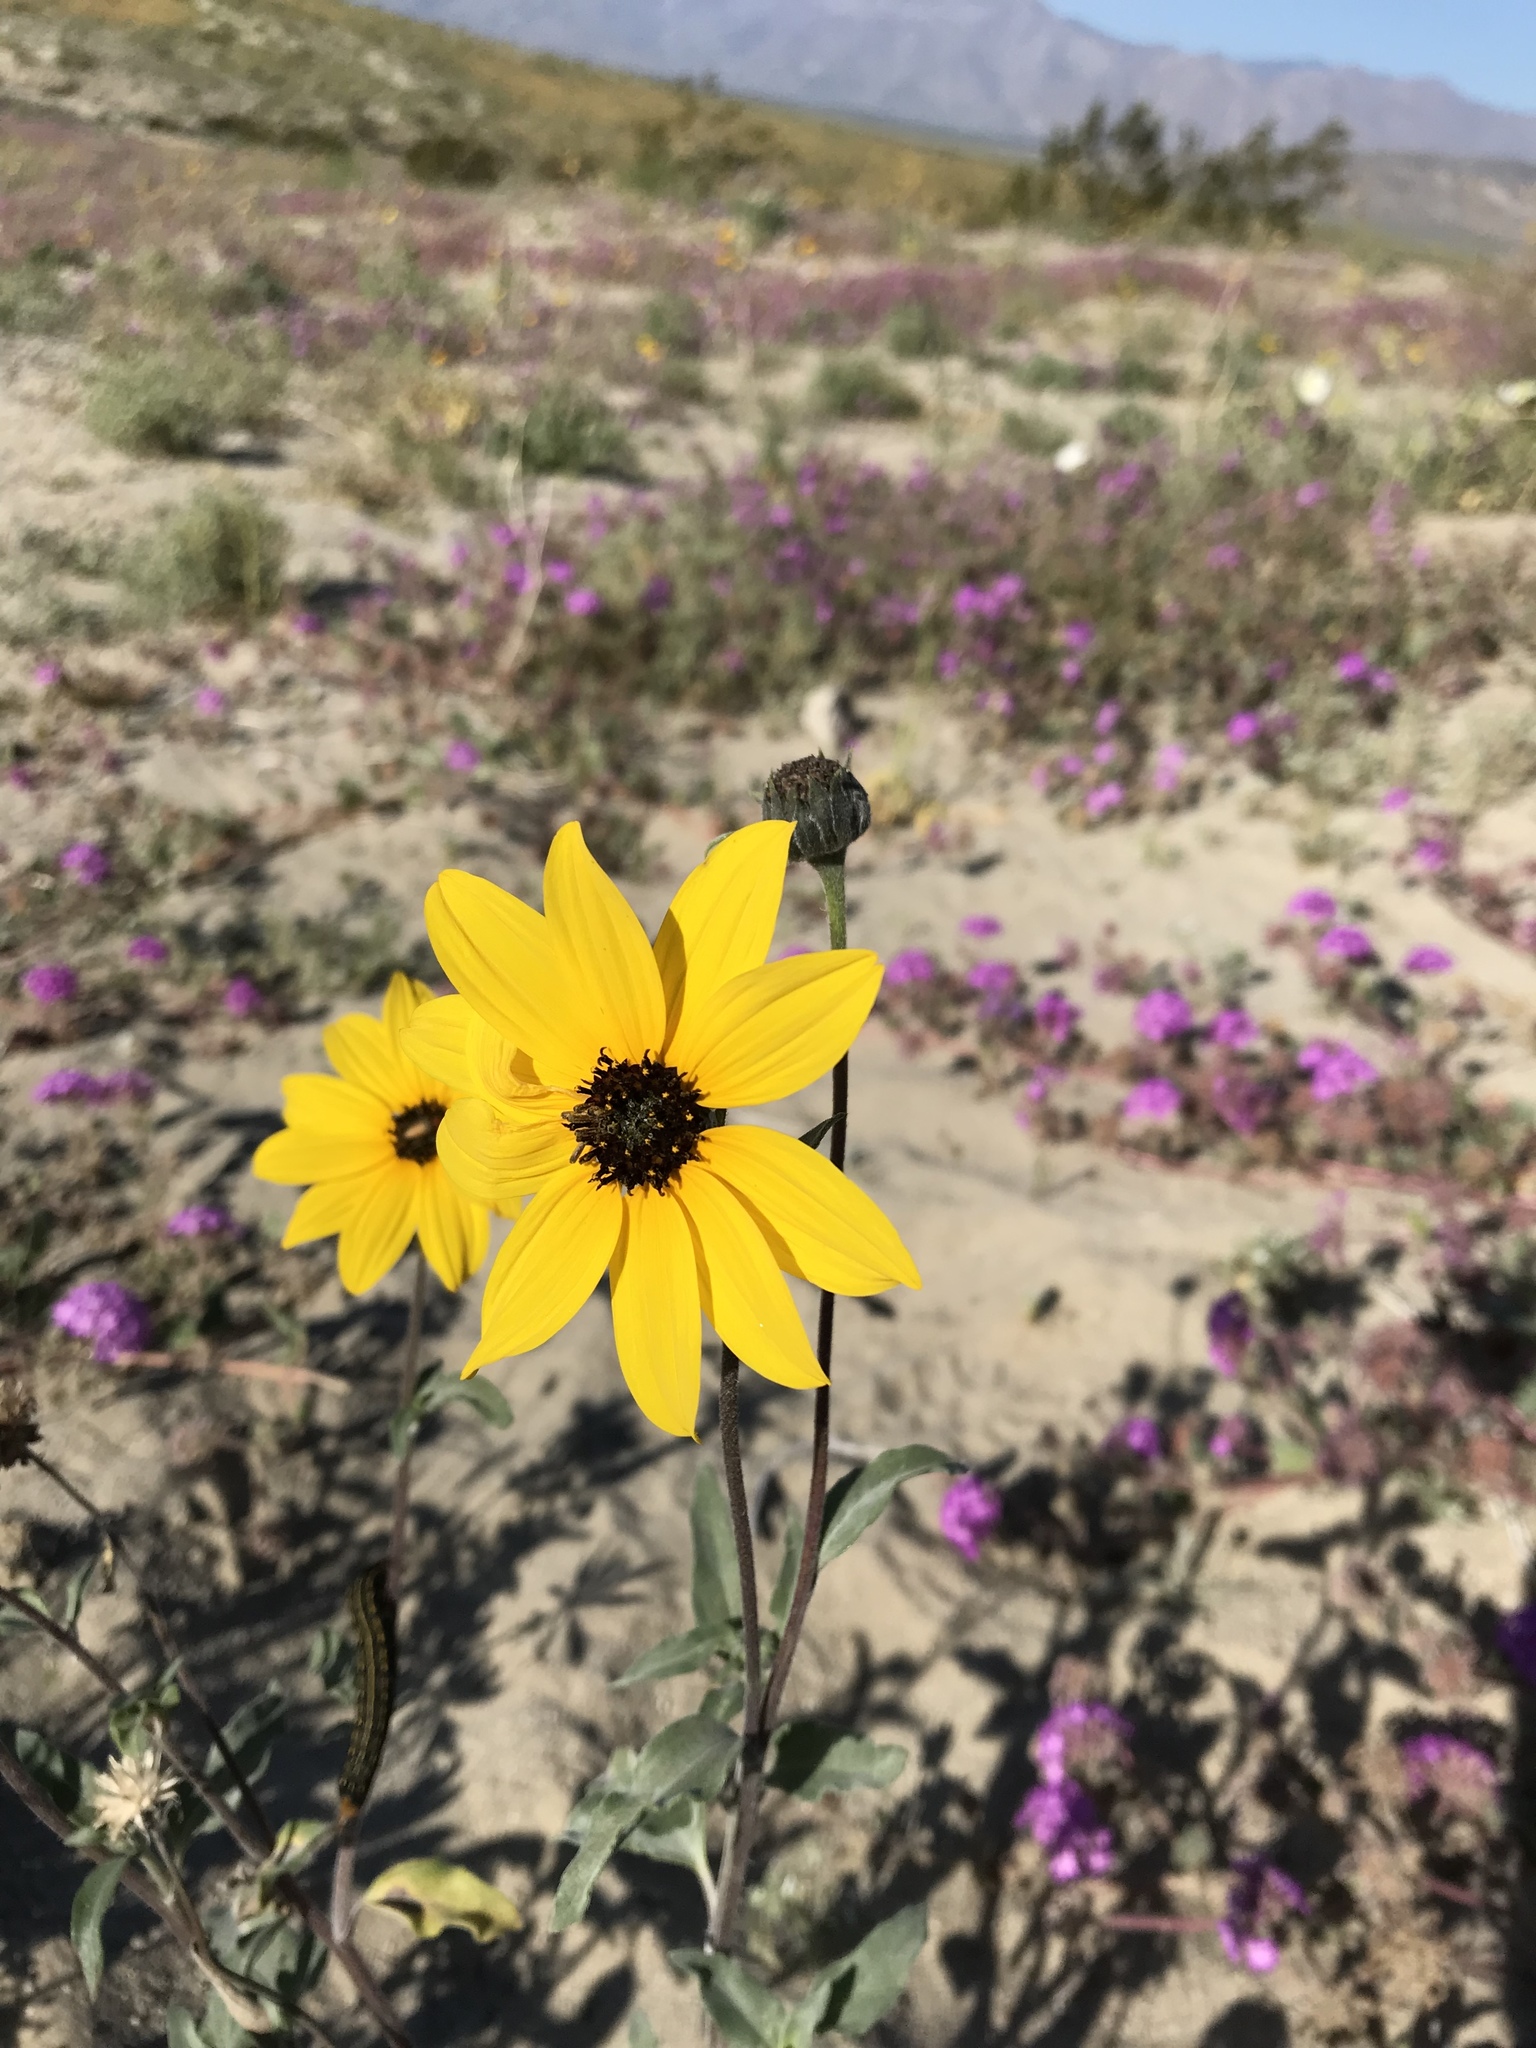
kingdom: Plantae
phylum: Tracheophyta
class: Magnoliopsida
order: Asterales
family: Asteraceae
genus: Helianthus
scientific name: Helianthus petiolaris
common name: Lesser sunflower
